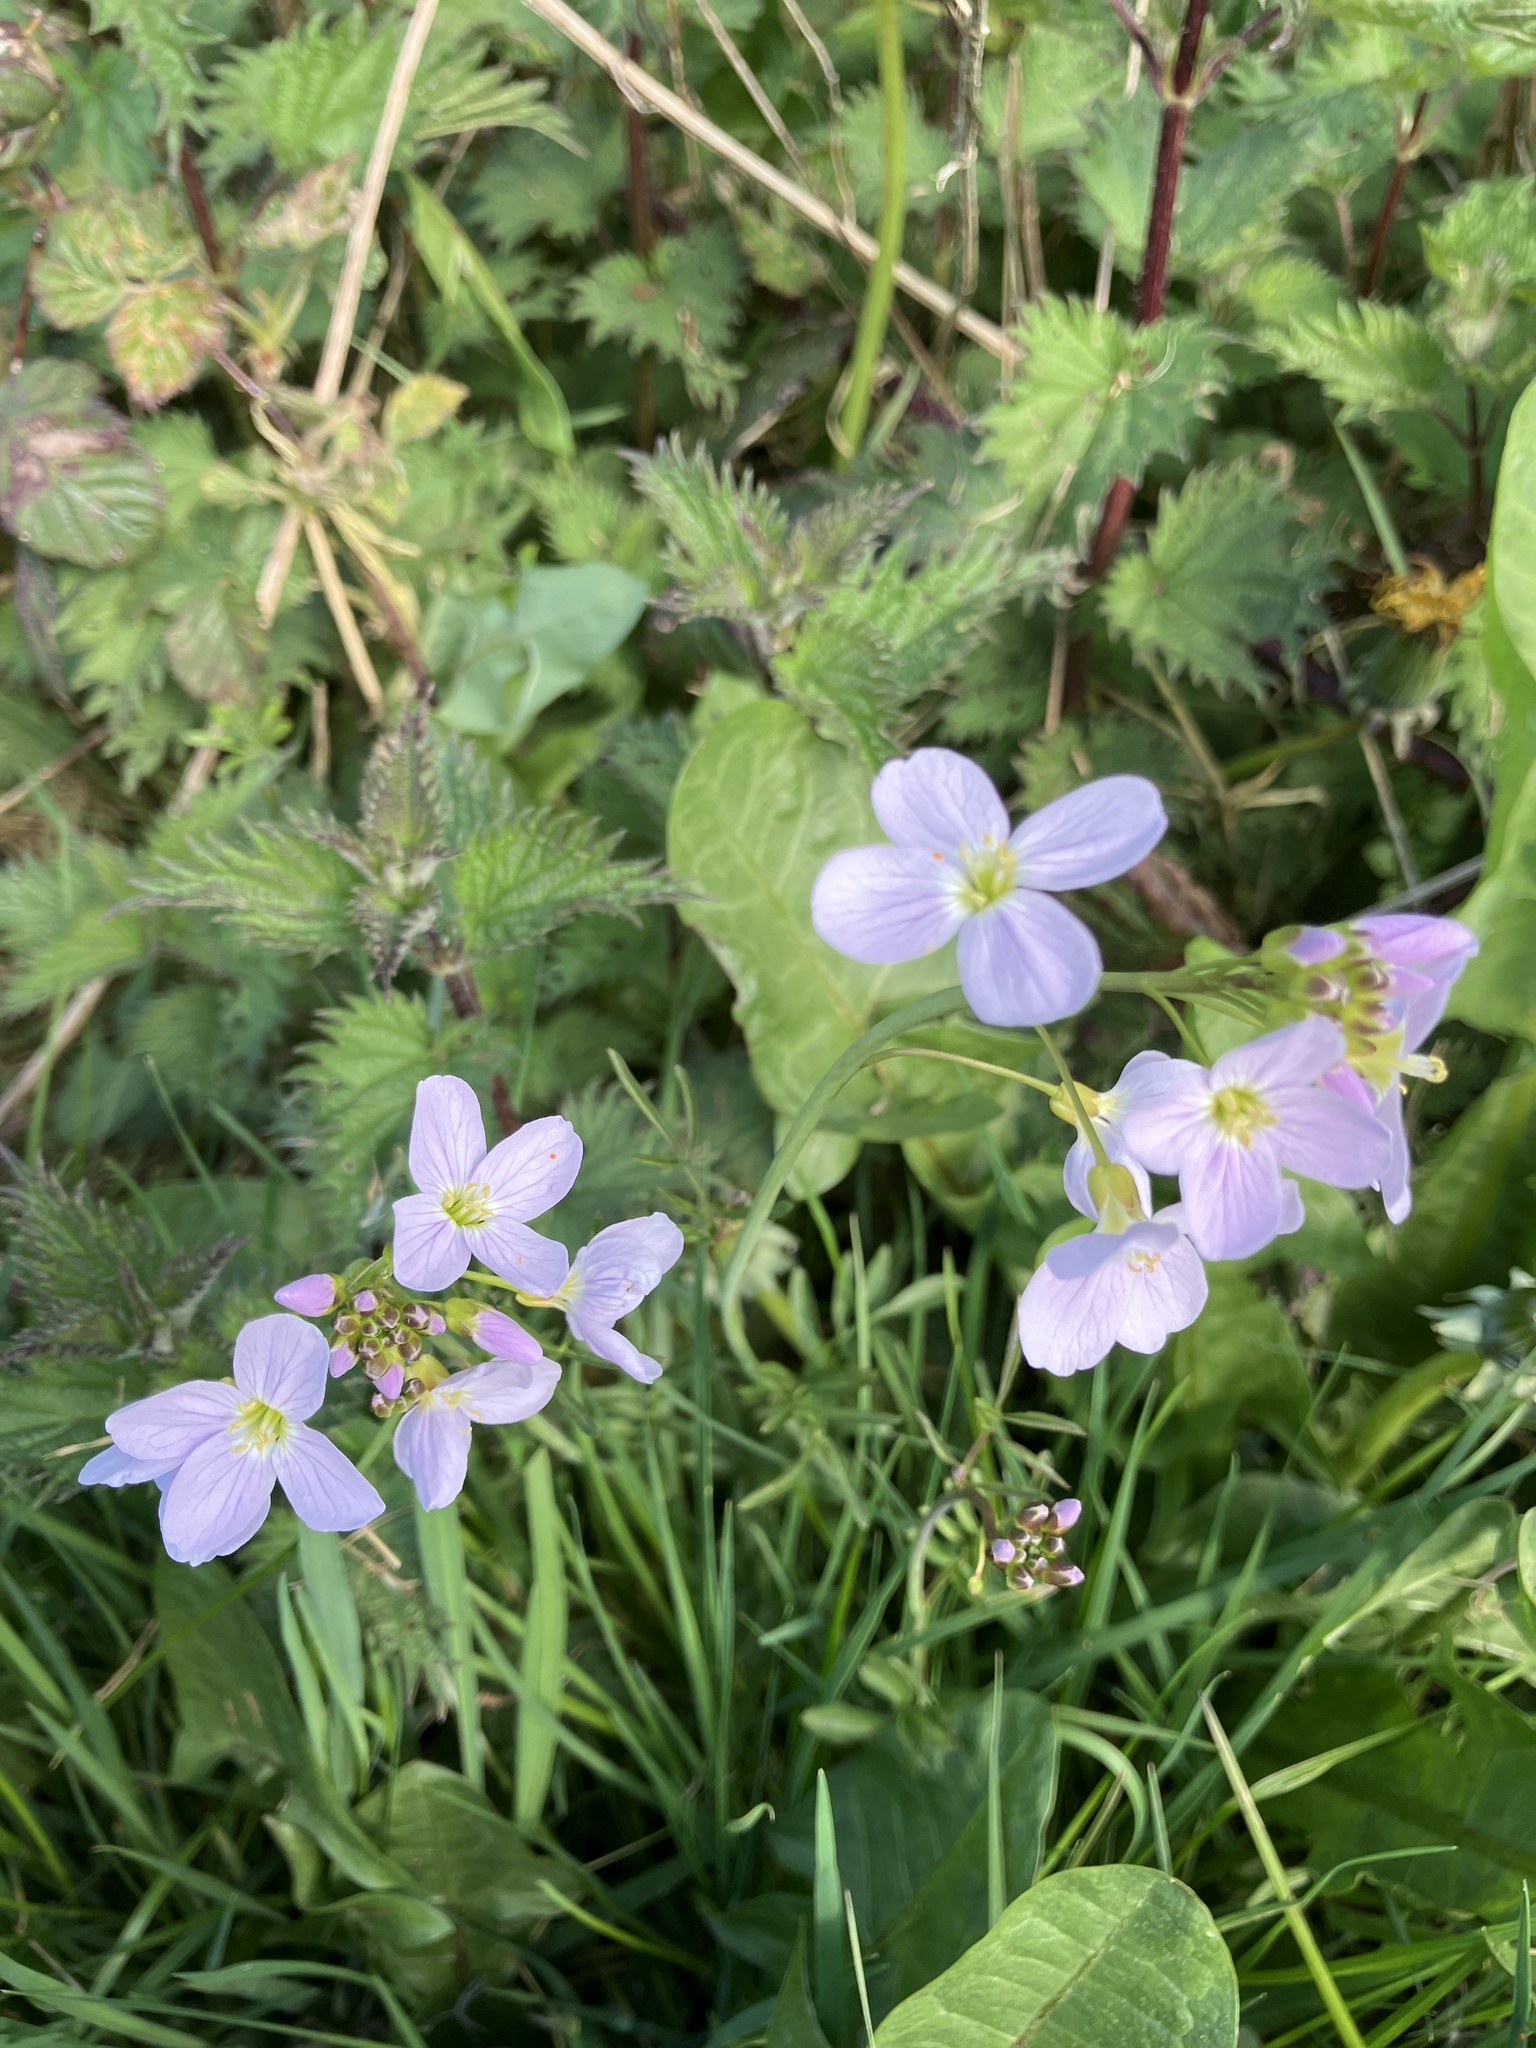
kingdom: Plantae
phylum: Tracheophyta
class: Magnoliopsida
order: Brassicales
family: Brassicaceae
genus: Cardamine
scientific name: Cardamine pratensis
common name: Cuckoo flower
